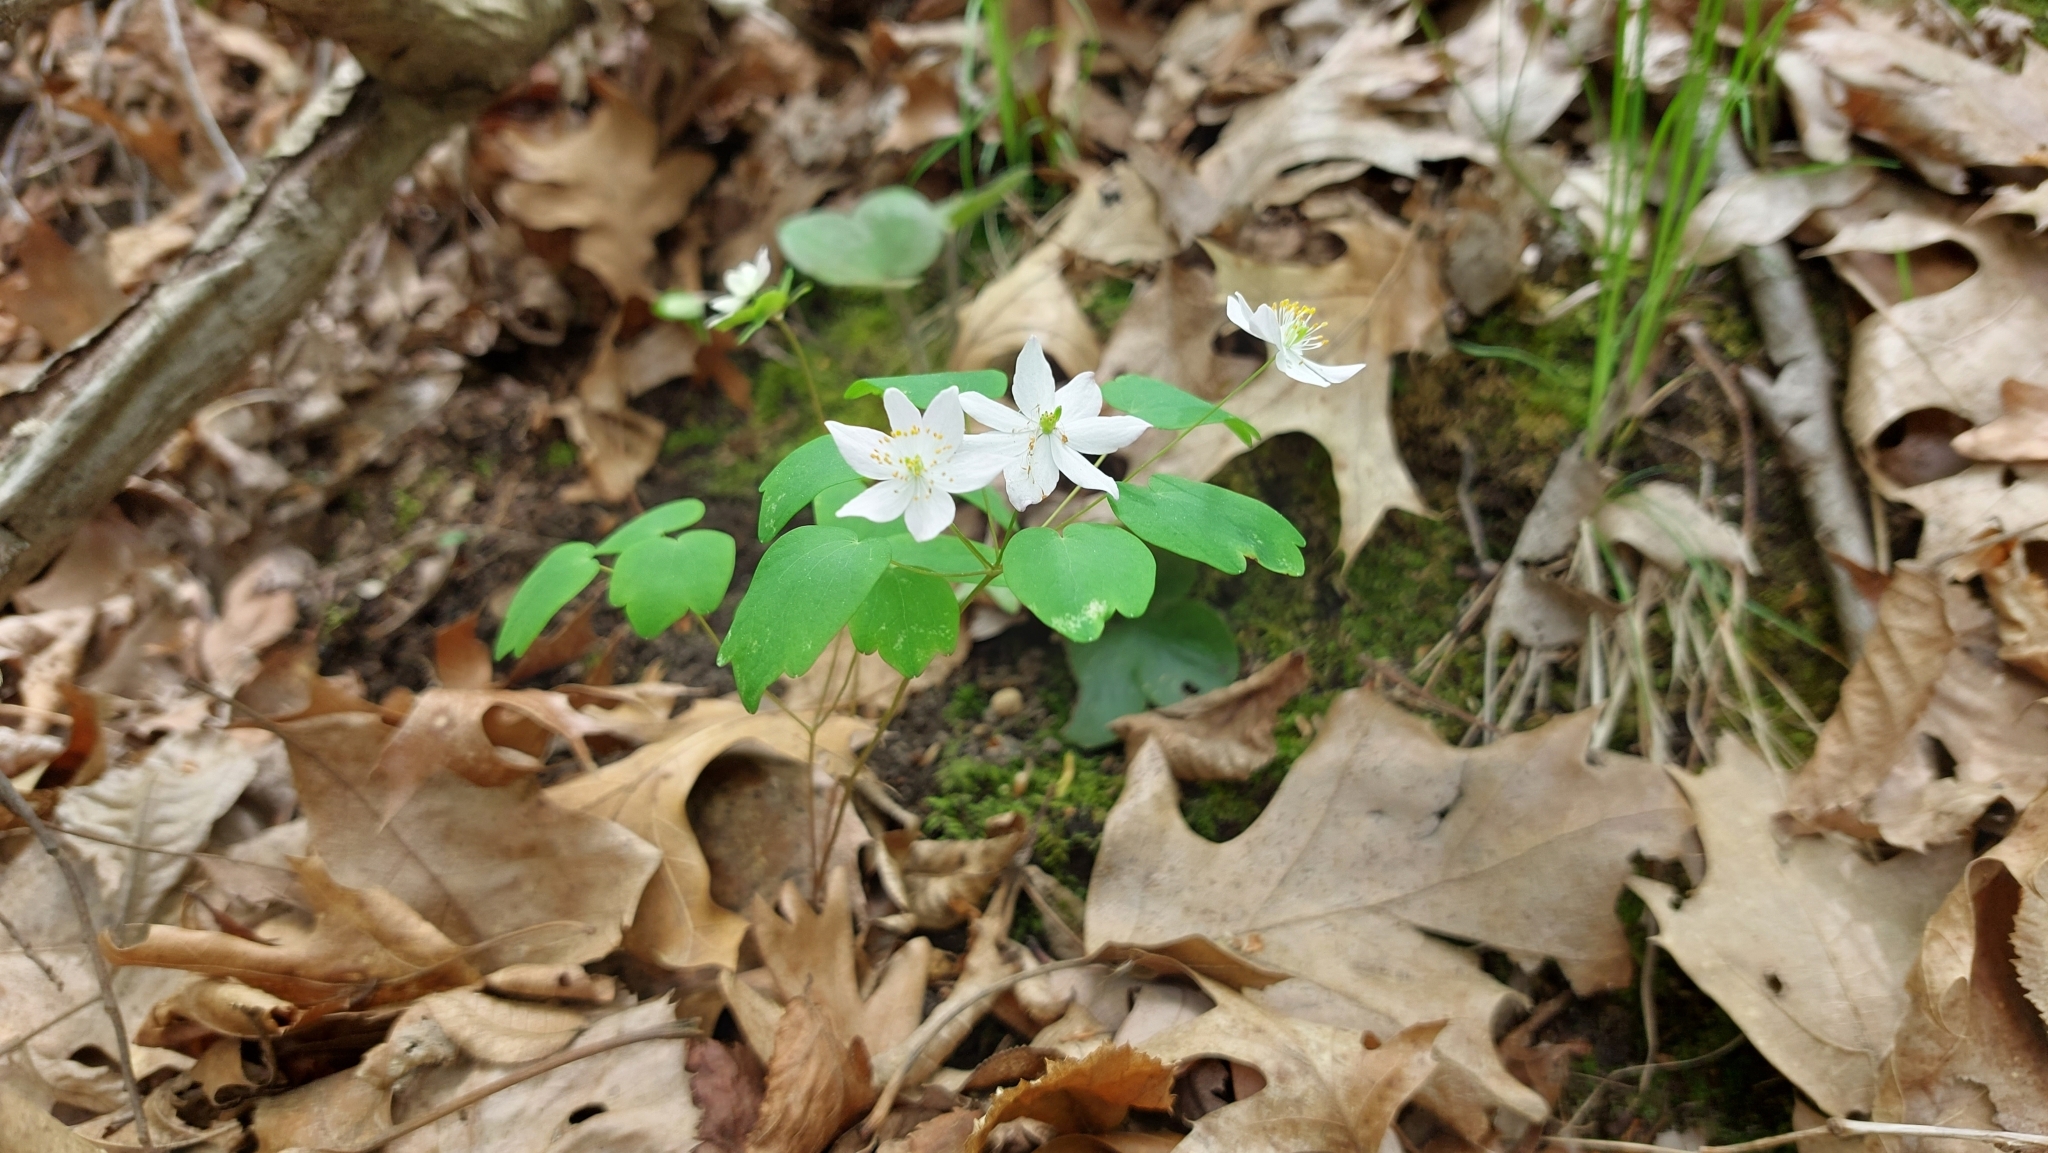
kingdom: Plantae
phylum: Tracheophyta
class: Magnoliopsida
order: Ranunculales
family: Ranunculaceae
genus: Thalictrum
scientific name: Thalictrum thalictroides
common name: Rue-anemone
